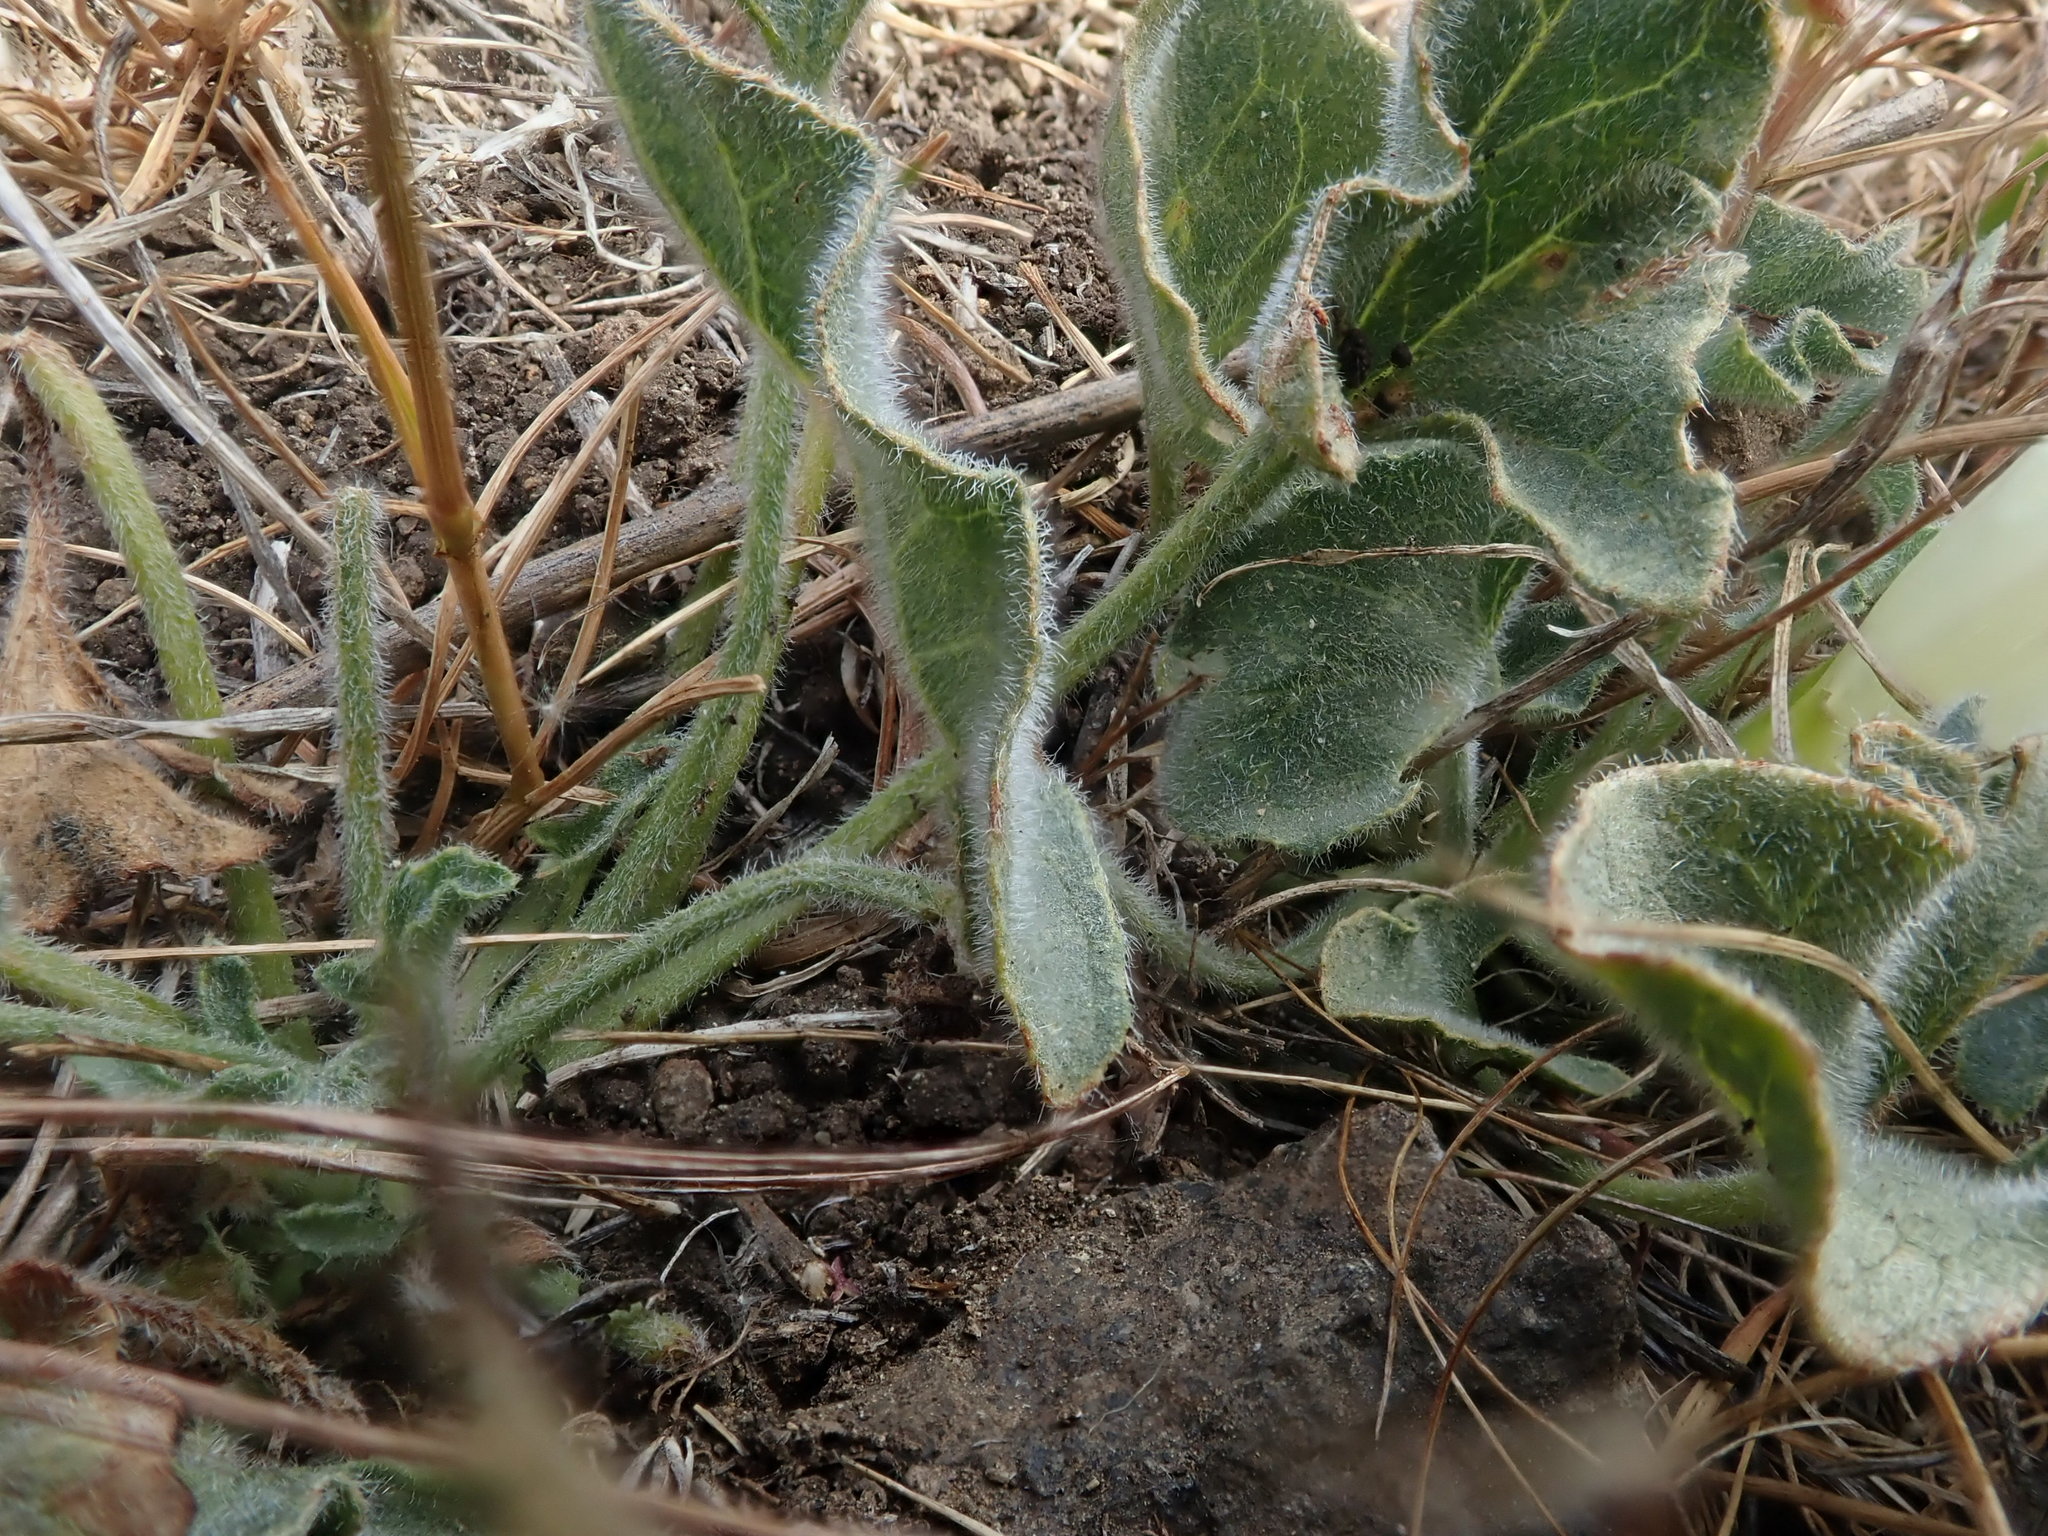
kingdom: Plantae
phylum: Tracheophyta
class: Magnoliopsida
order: Solanales
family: Convolvulaceae
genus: Calystegia
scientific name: Calystegia collina
